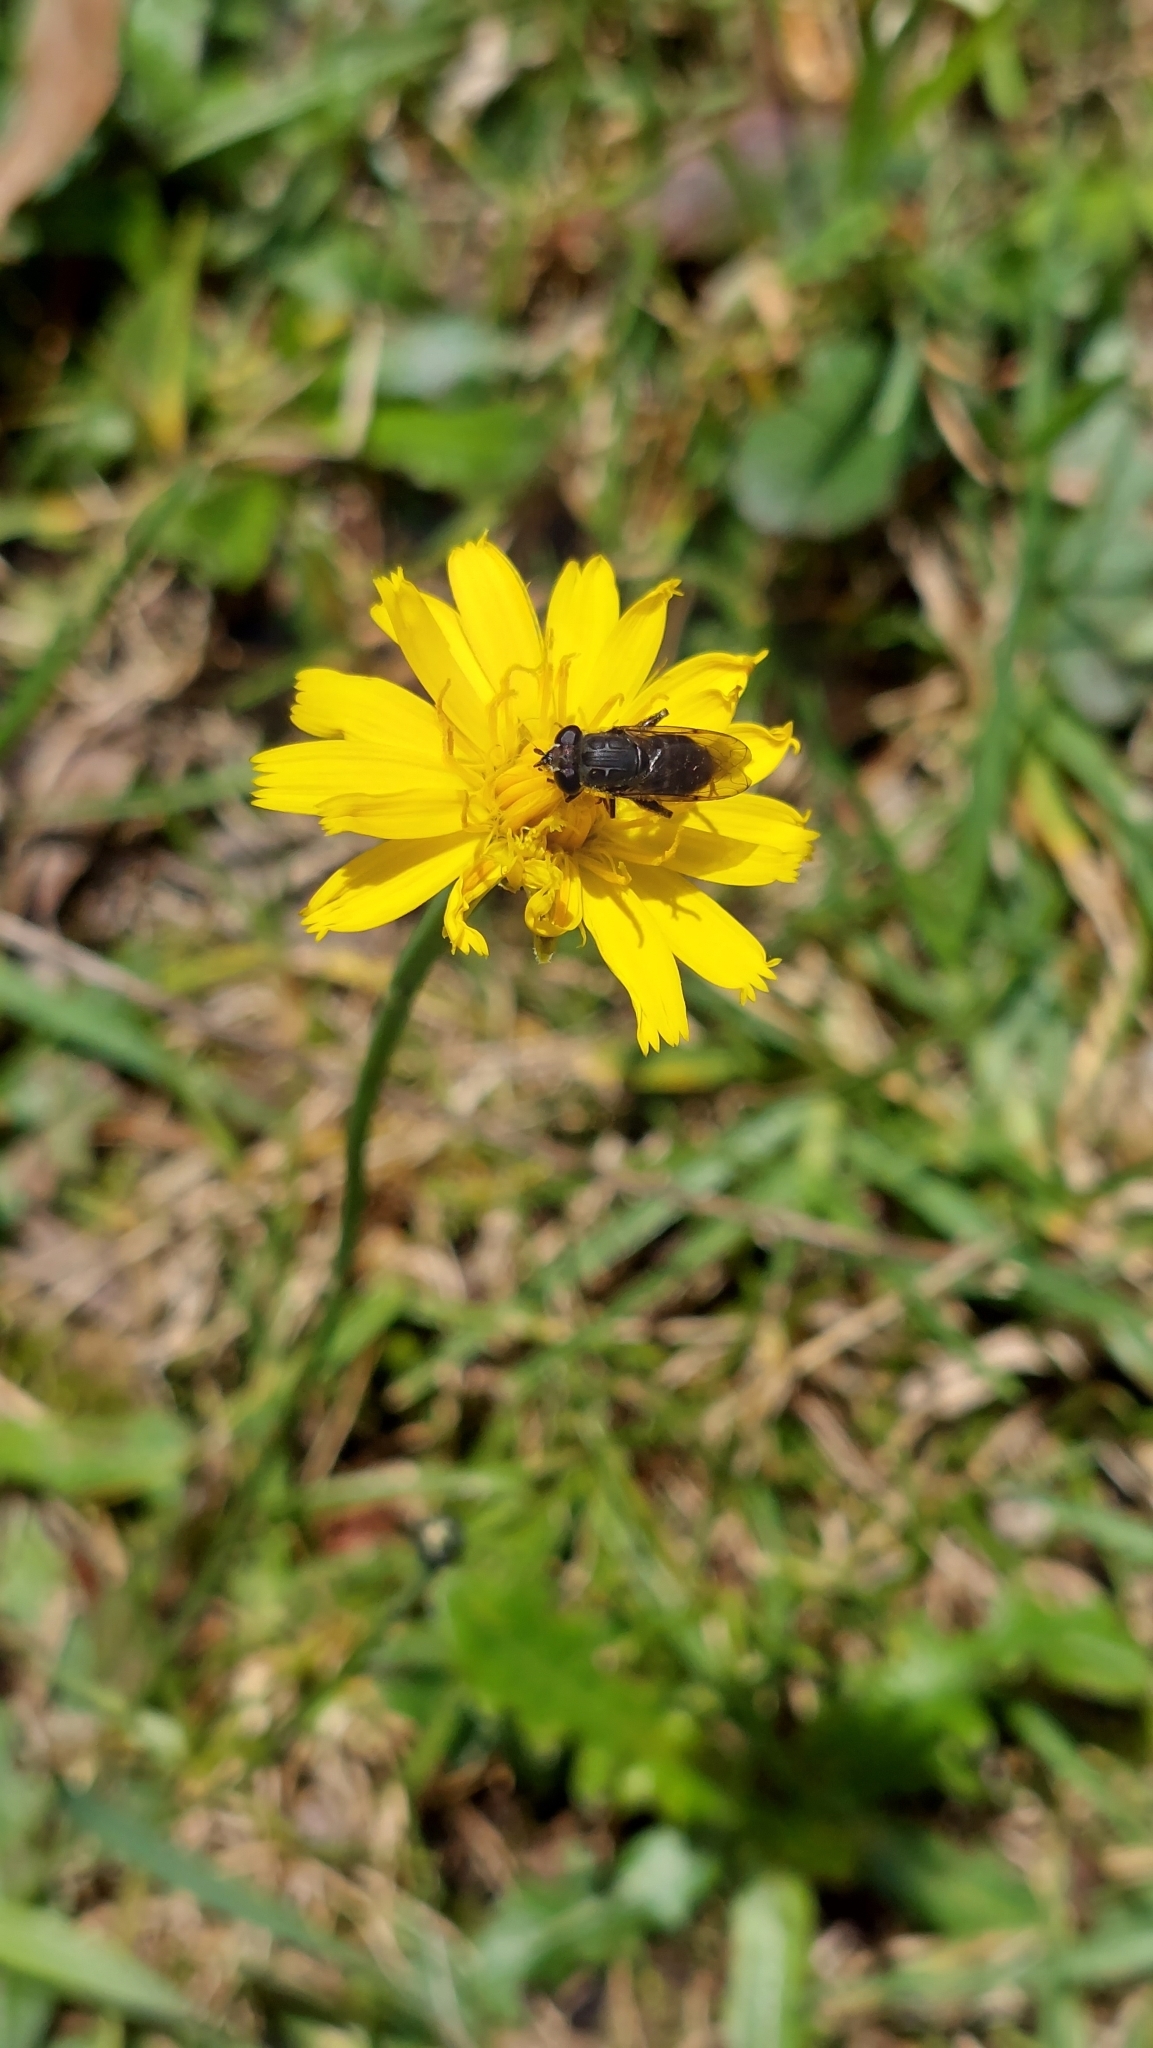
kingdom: Animalia
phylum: Arthropoda
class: Insecta
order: Diptera
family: Syrphidae
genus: Asemosyrphus
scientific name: Asemosyrphus
